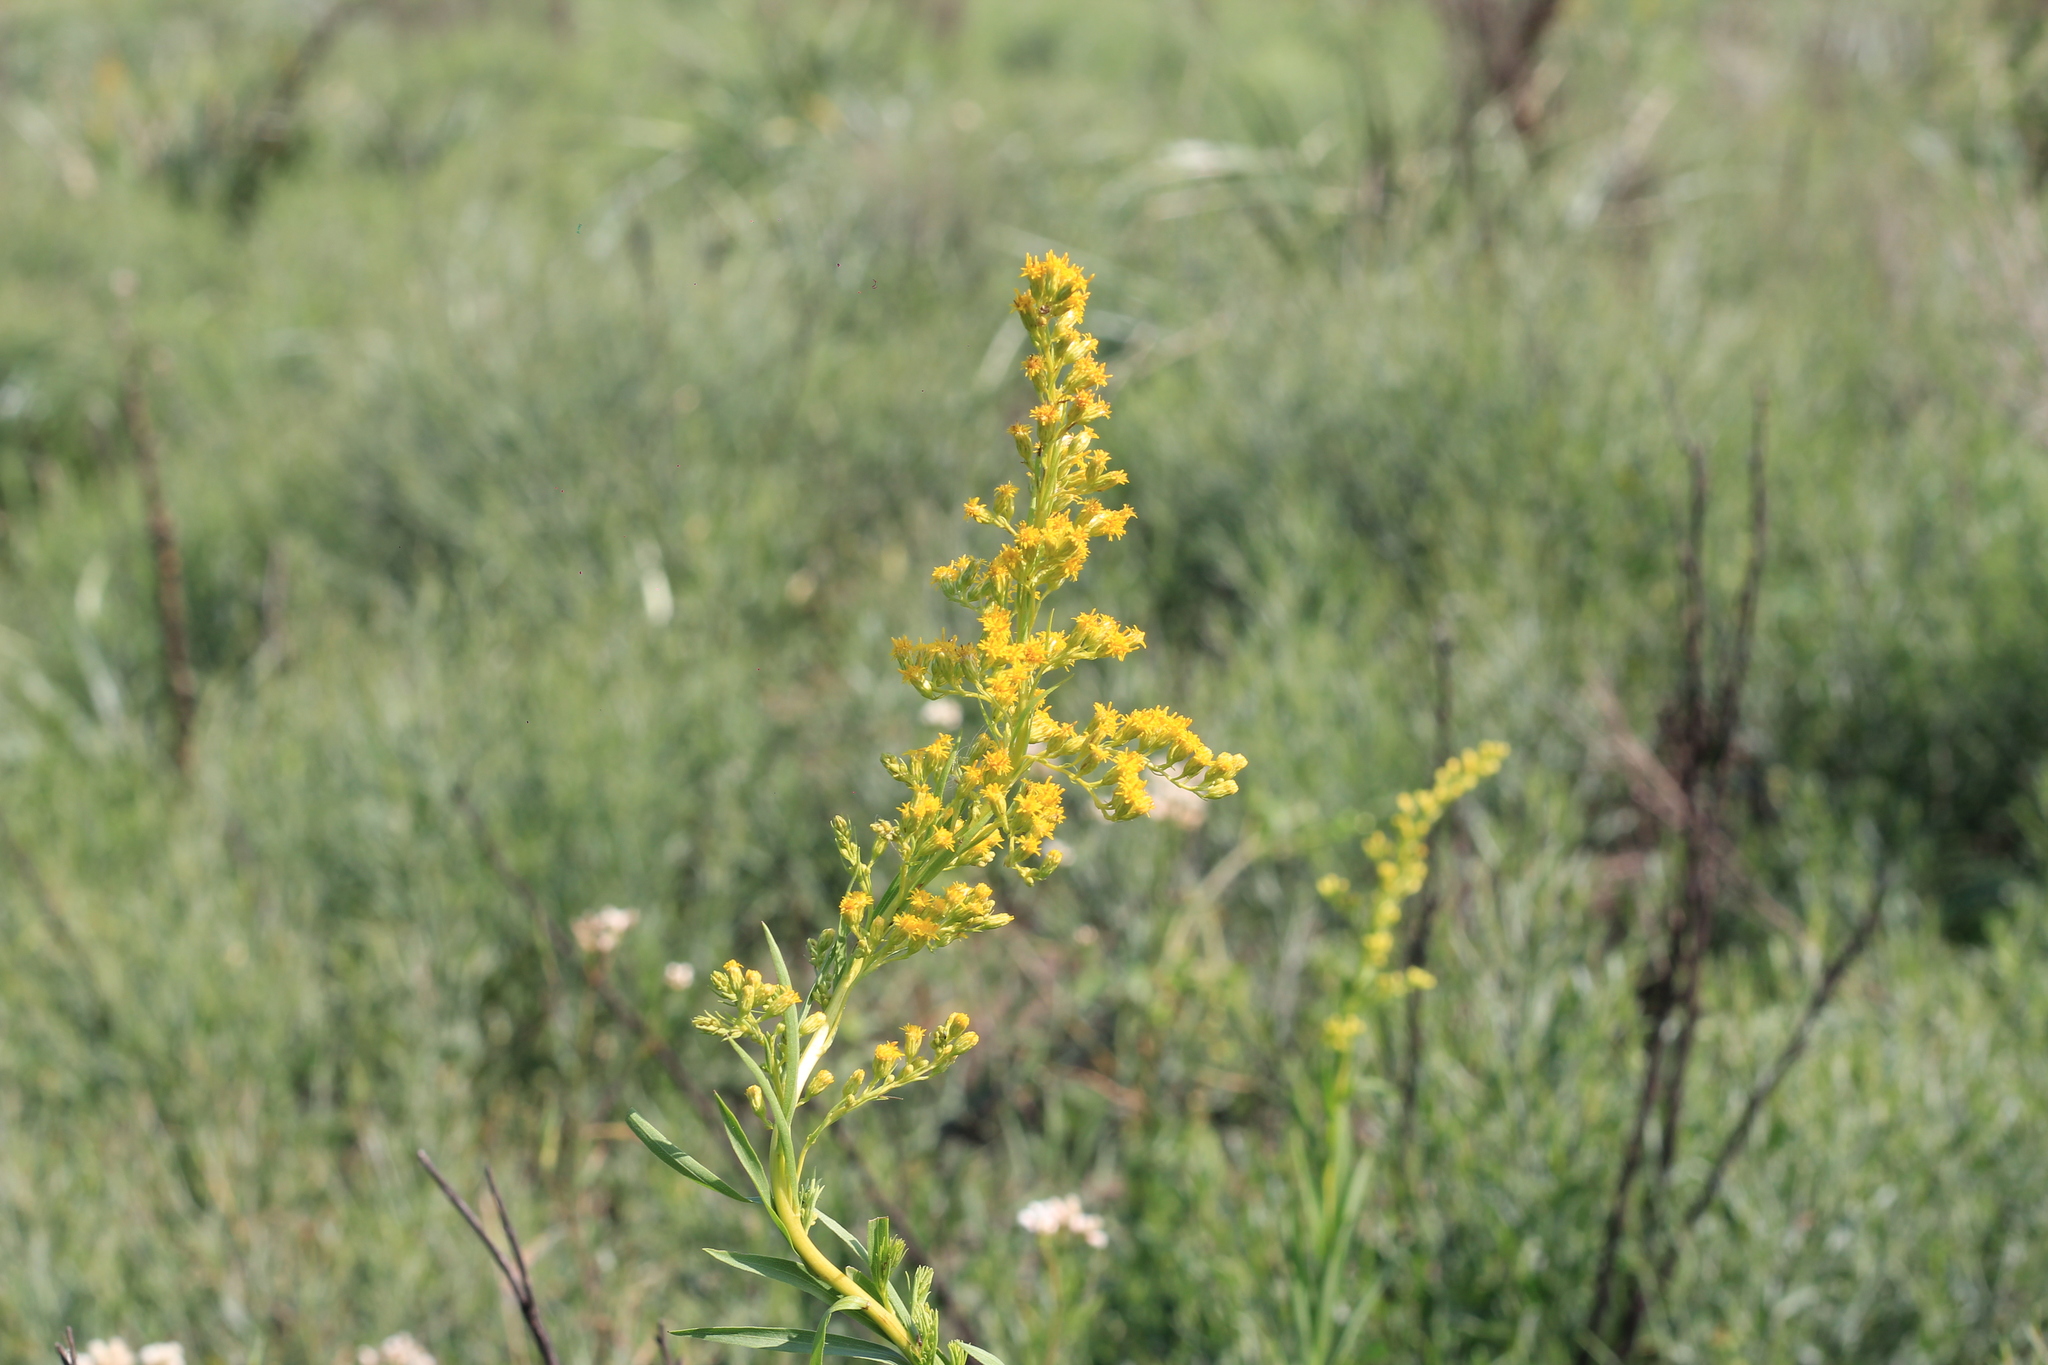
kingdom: Plantae
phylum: Tracheophyta
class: Magnoliopsida
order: Asterales
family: Asteraceae
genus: Solidago
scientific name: Solidago chilensis
